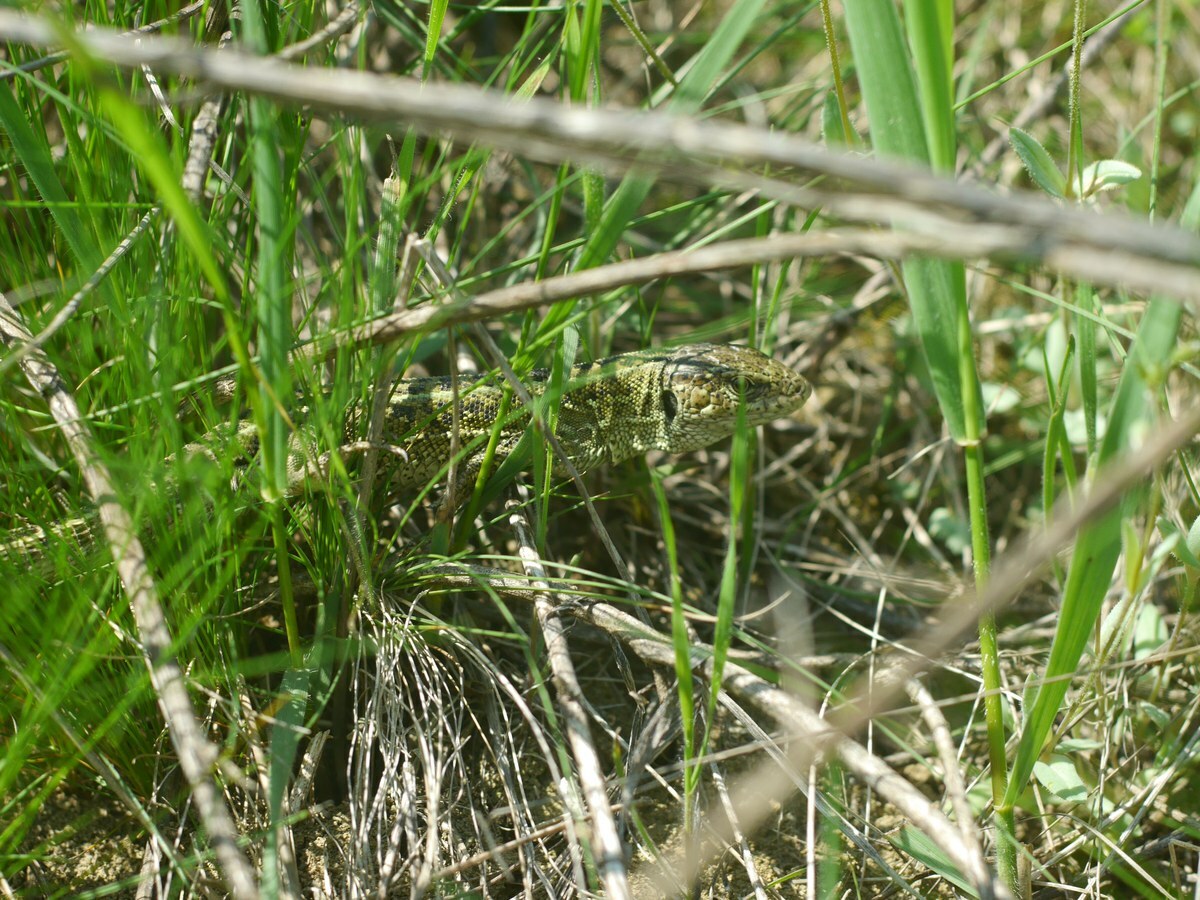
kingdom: Animalia
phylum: Chordata
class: Squamata
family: Lacertidae
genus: Lacerta
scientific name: Lacerta agilis
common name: Sand lizard
